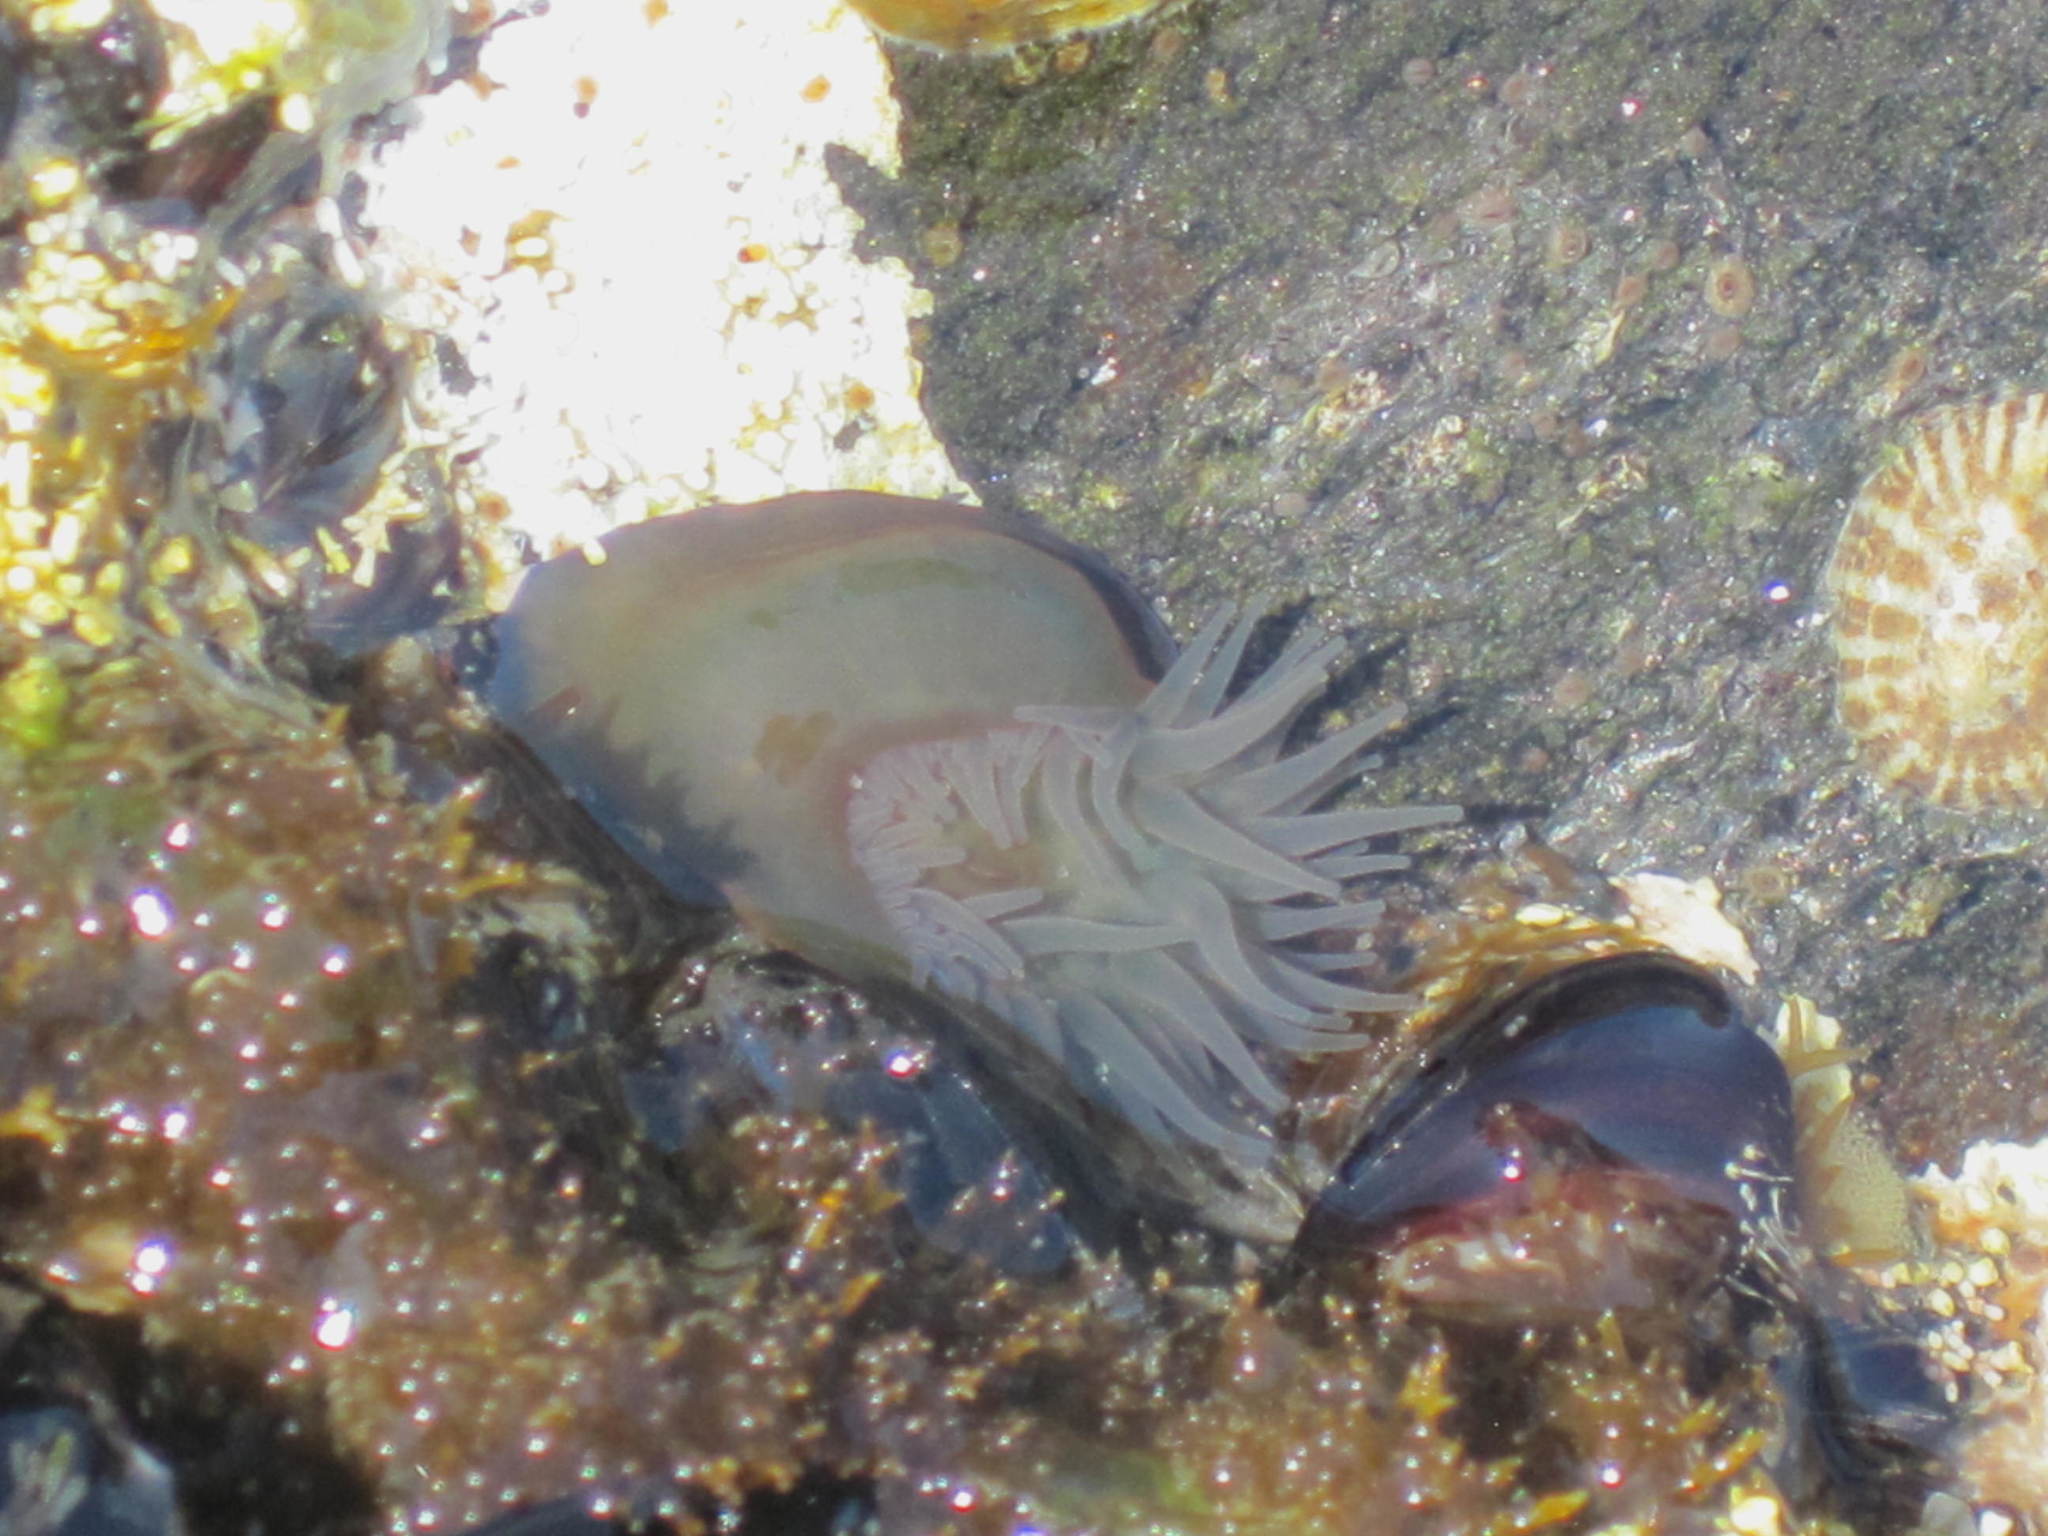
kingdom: Animalia
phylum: Cnidaria
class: Anthozoa
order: Actiniaria
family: Actiniidae
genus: Actinia
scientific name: Actinia equina
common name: Beadlet anemone
